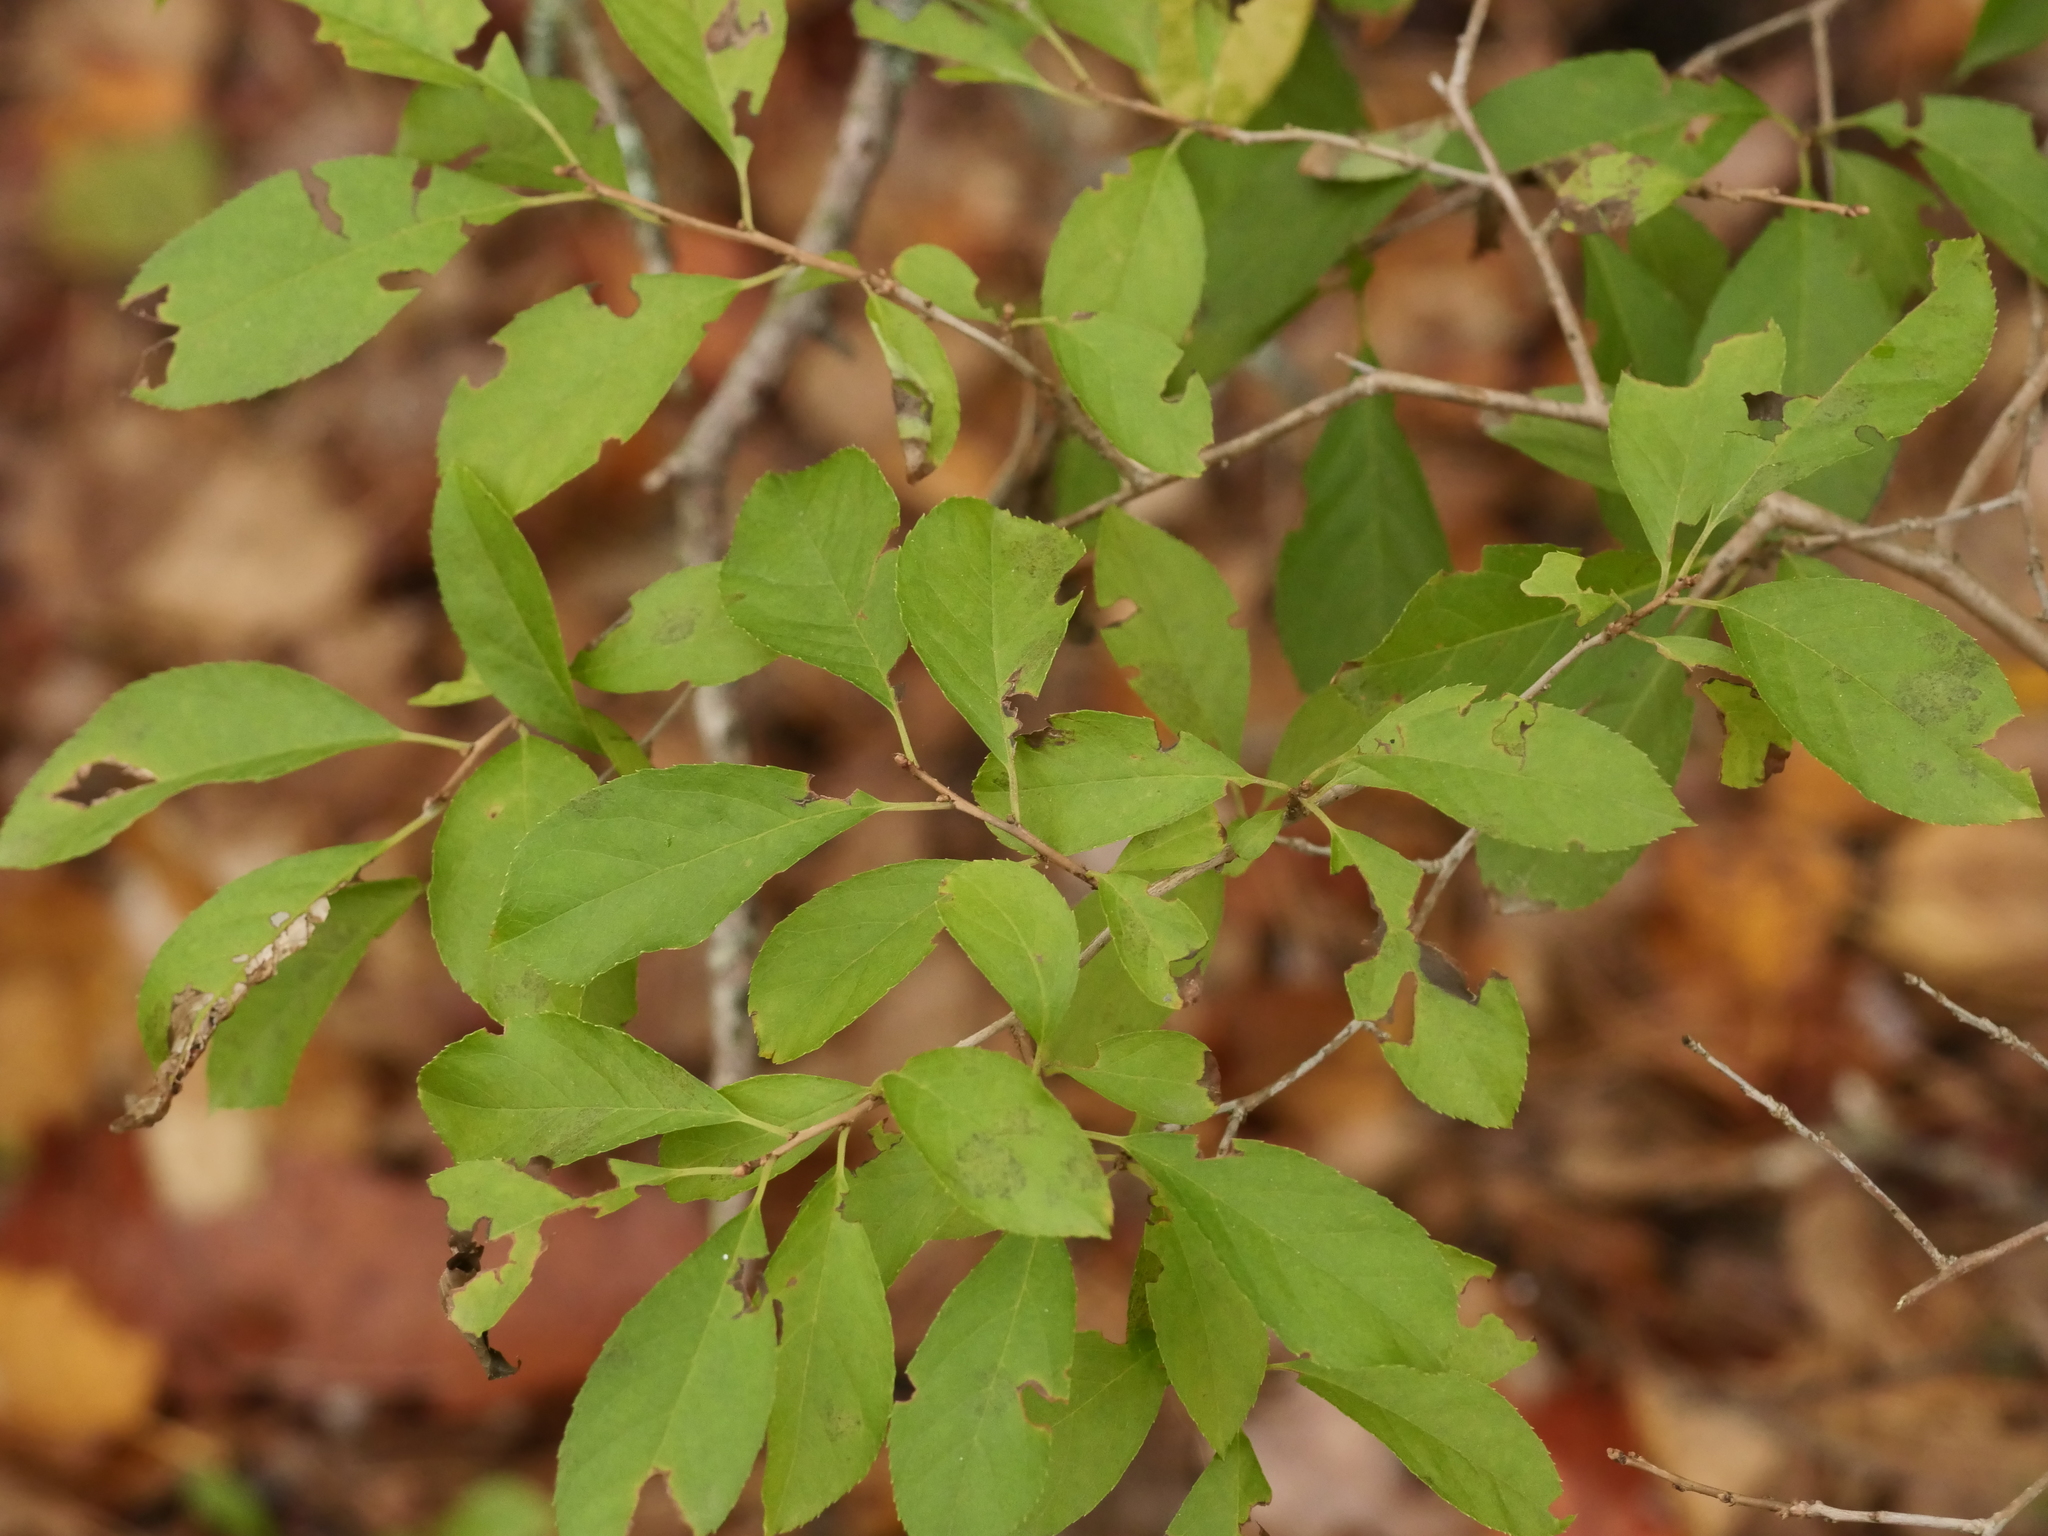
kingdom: Plantae
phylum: Tracheophyta
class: Magnoliopsida
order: Aquifoliales
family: Aquifoliaceae
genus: Ilex
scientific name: Ilex verticillata
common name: Virginia winterberry
